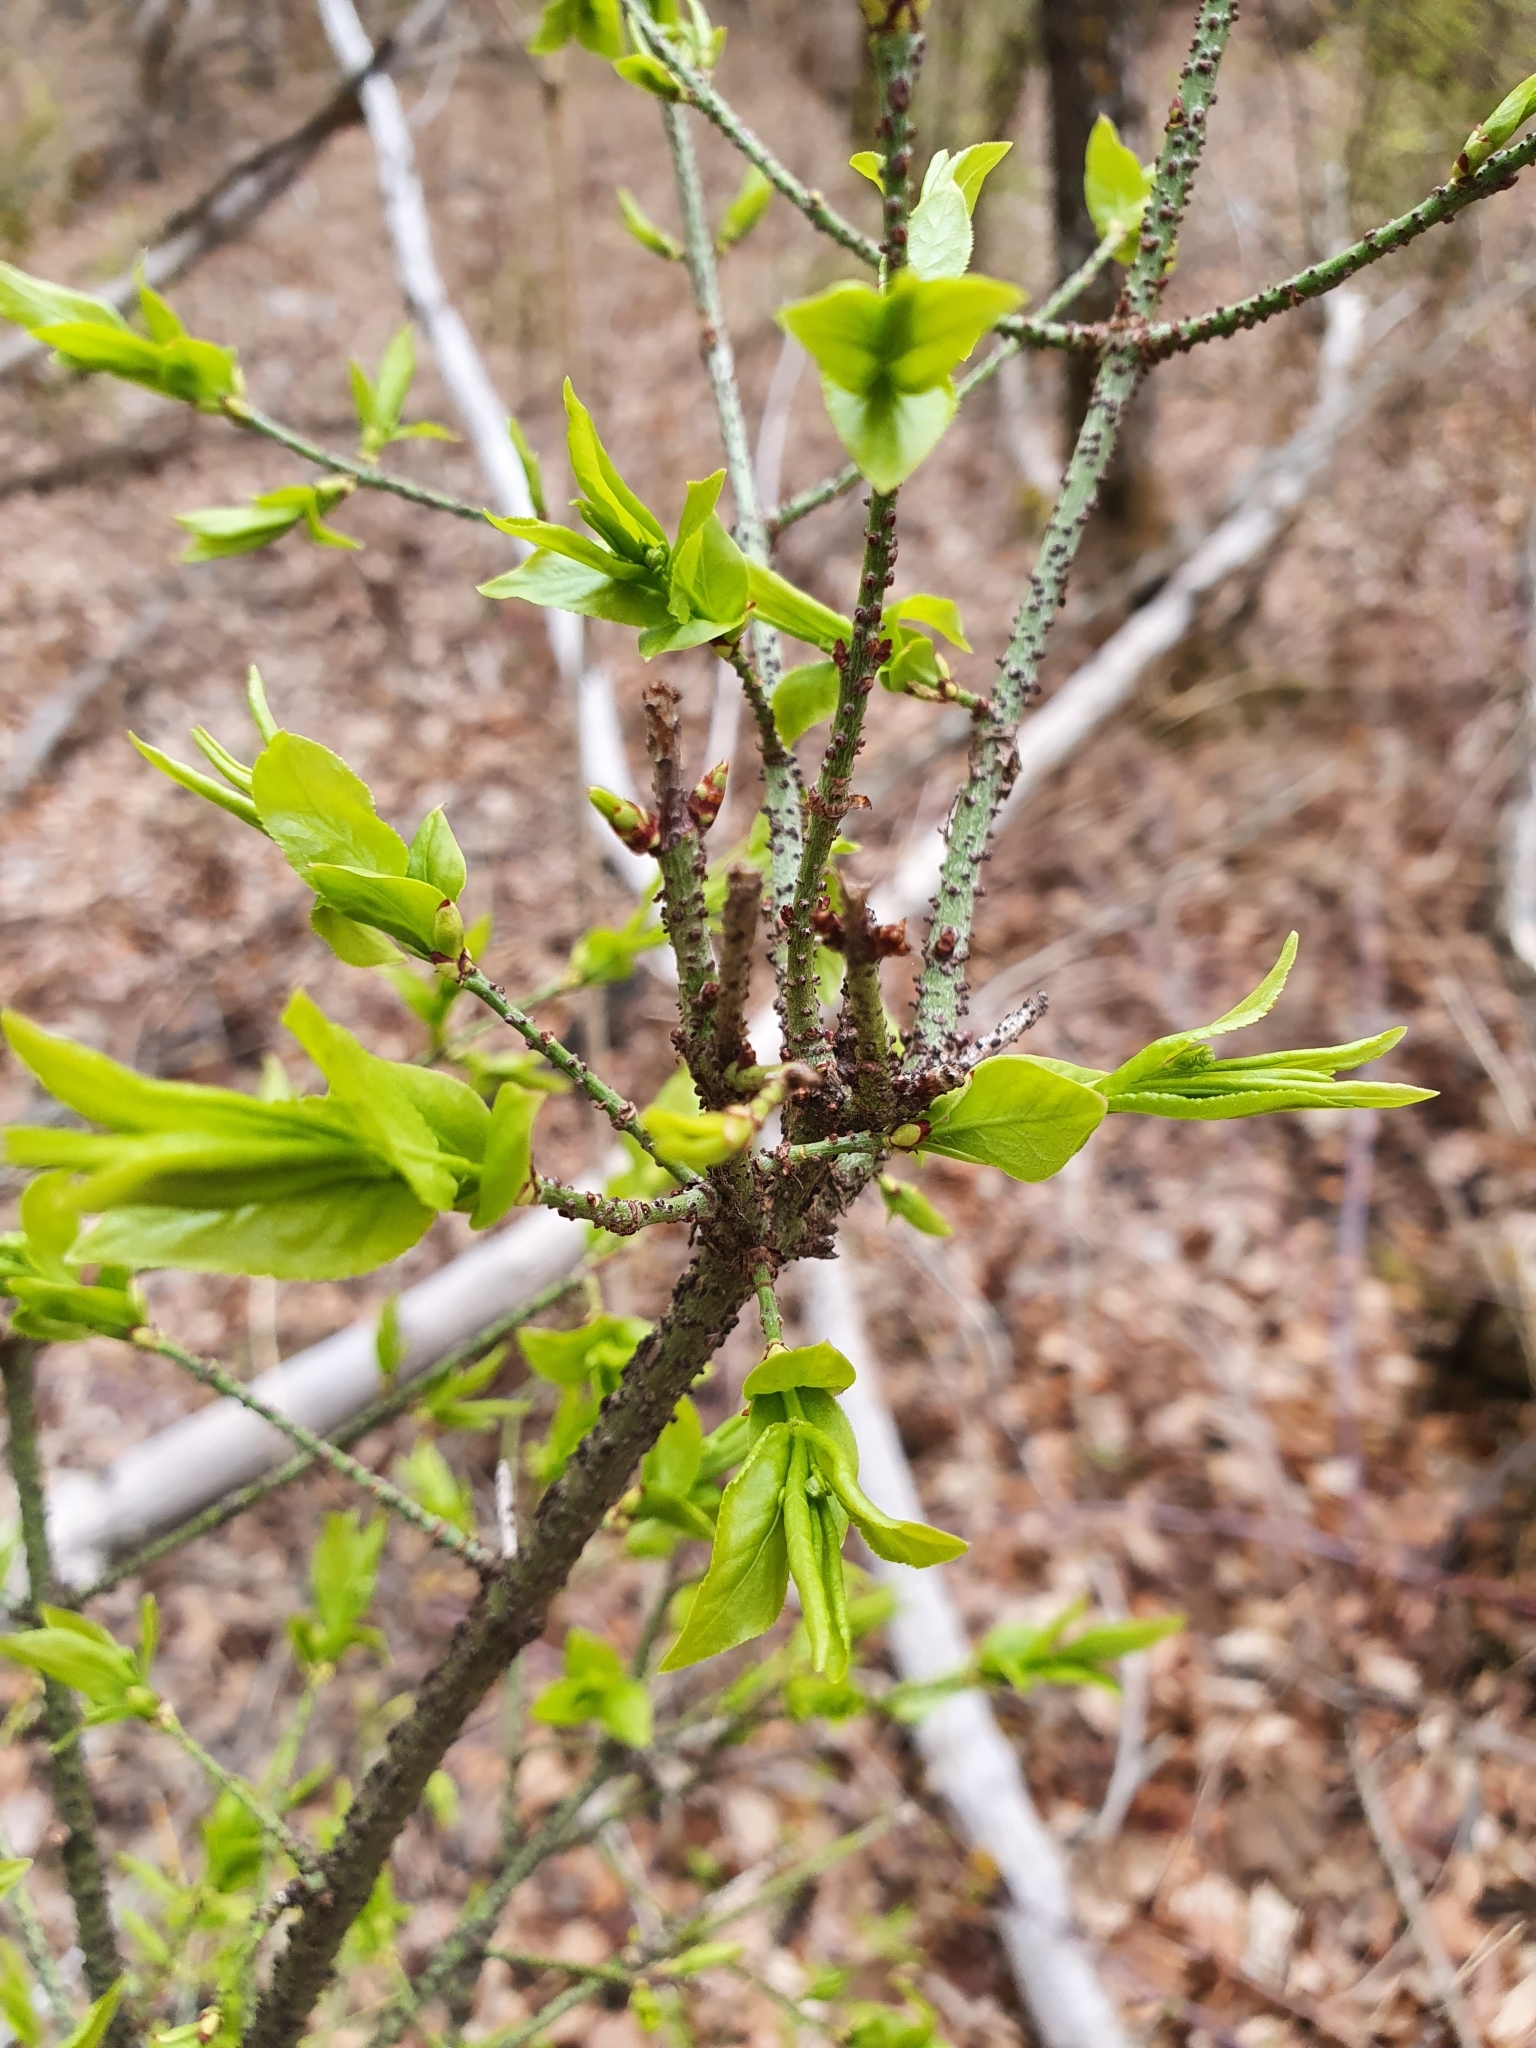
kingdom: Plantae
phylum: Tracheophyta
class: Magnoliopsida
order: Celastrales
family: Celastraceae
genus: Euonymus
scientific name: Euonymus verrucosus
